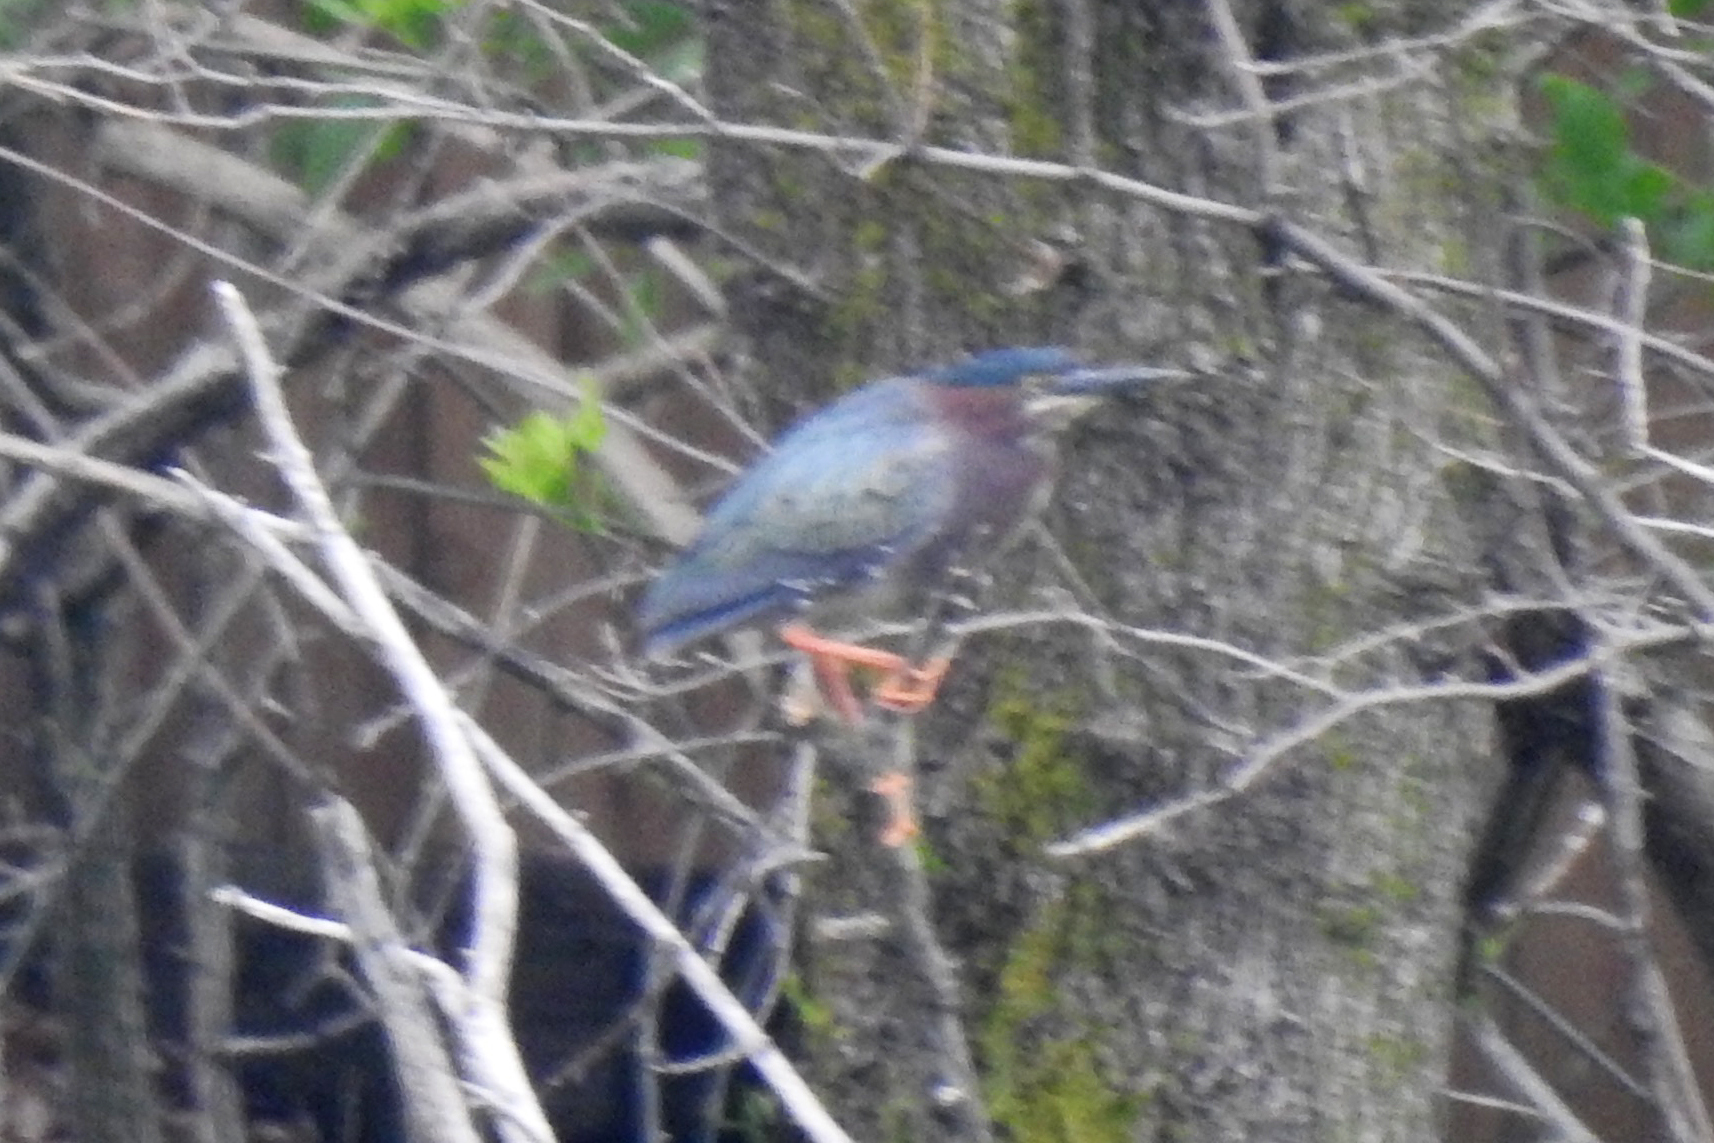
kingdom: Animalia
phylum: Chordata
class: Aves
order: Pelecaniformes
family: Ardeidae
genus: Butorides
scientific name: Butorides virescens
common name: Green heron
